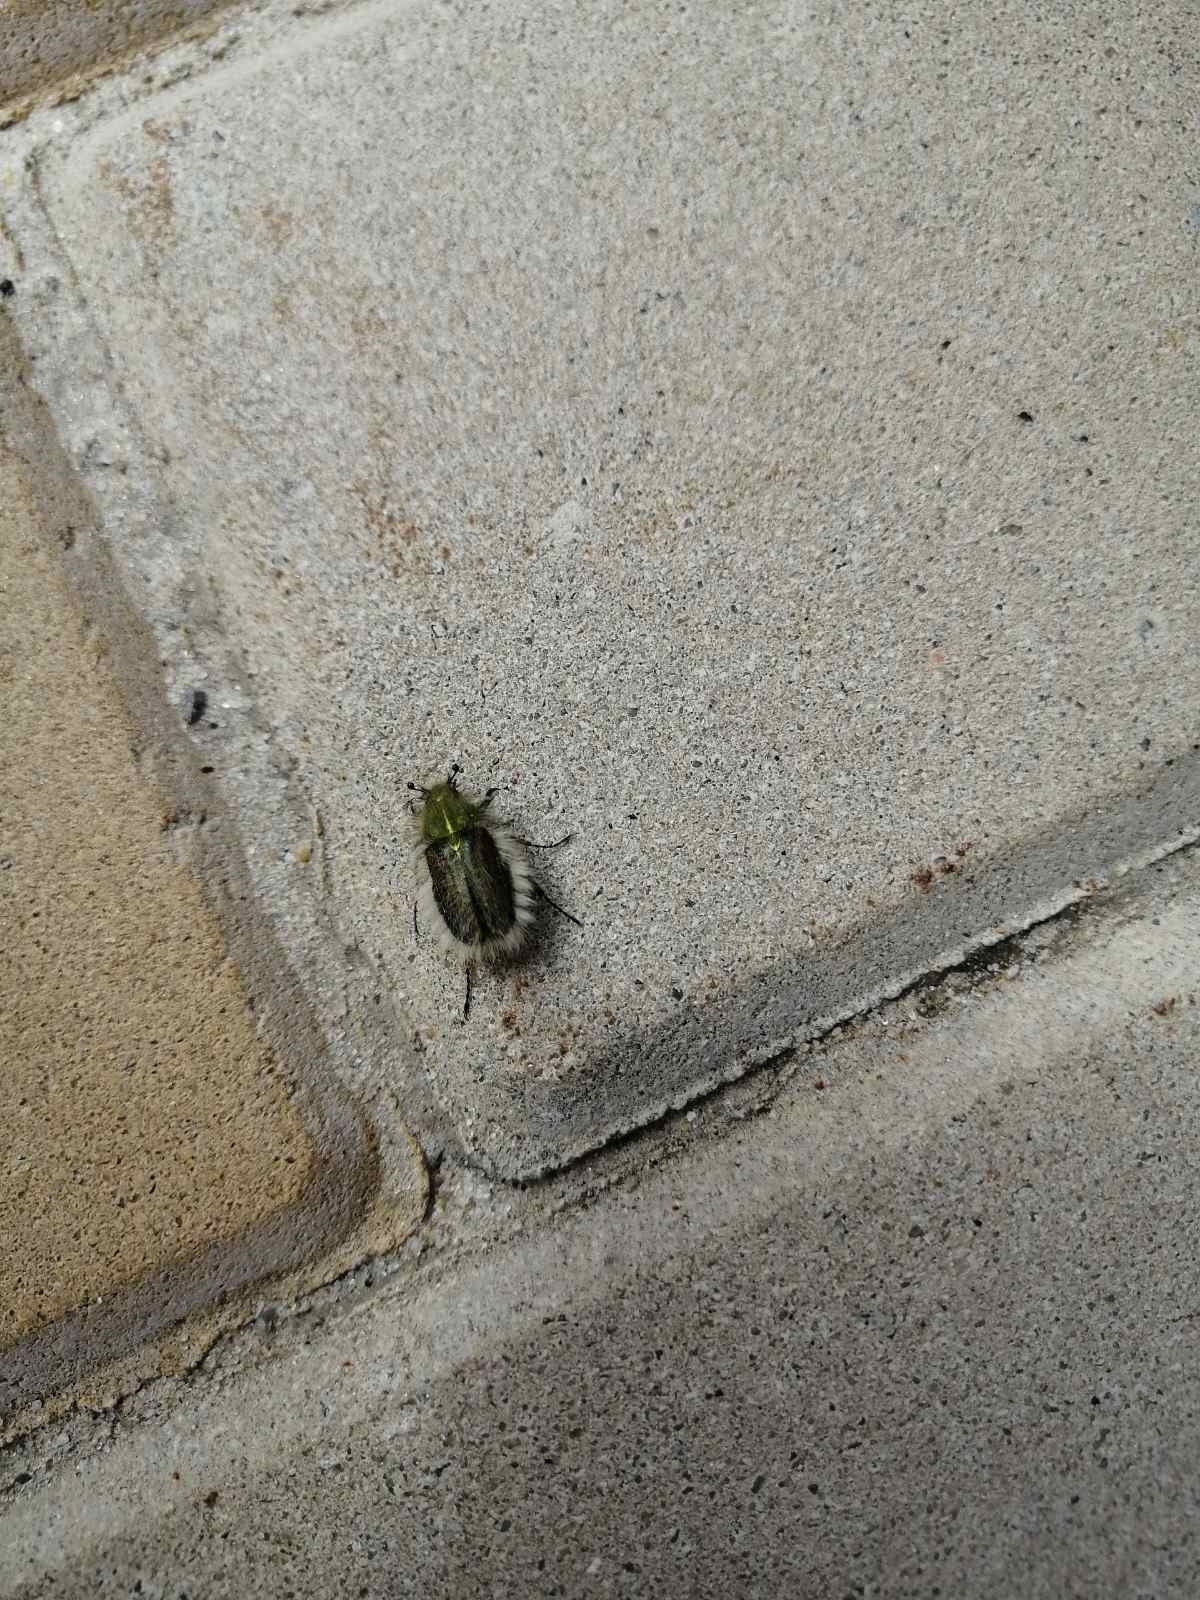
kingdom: Animalia
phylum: Arthropoda
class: Insecta
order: Coleoptera
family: Glaphyridae
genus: Pygopleurus
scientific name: Pygopleurus vulpes
